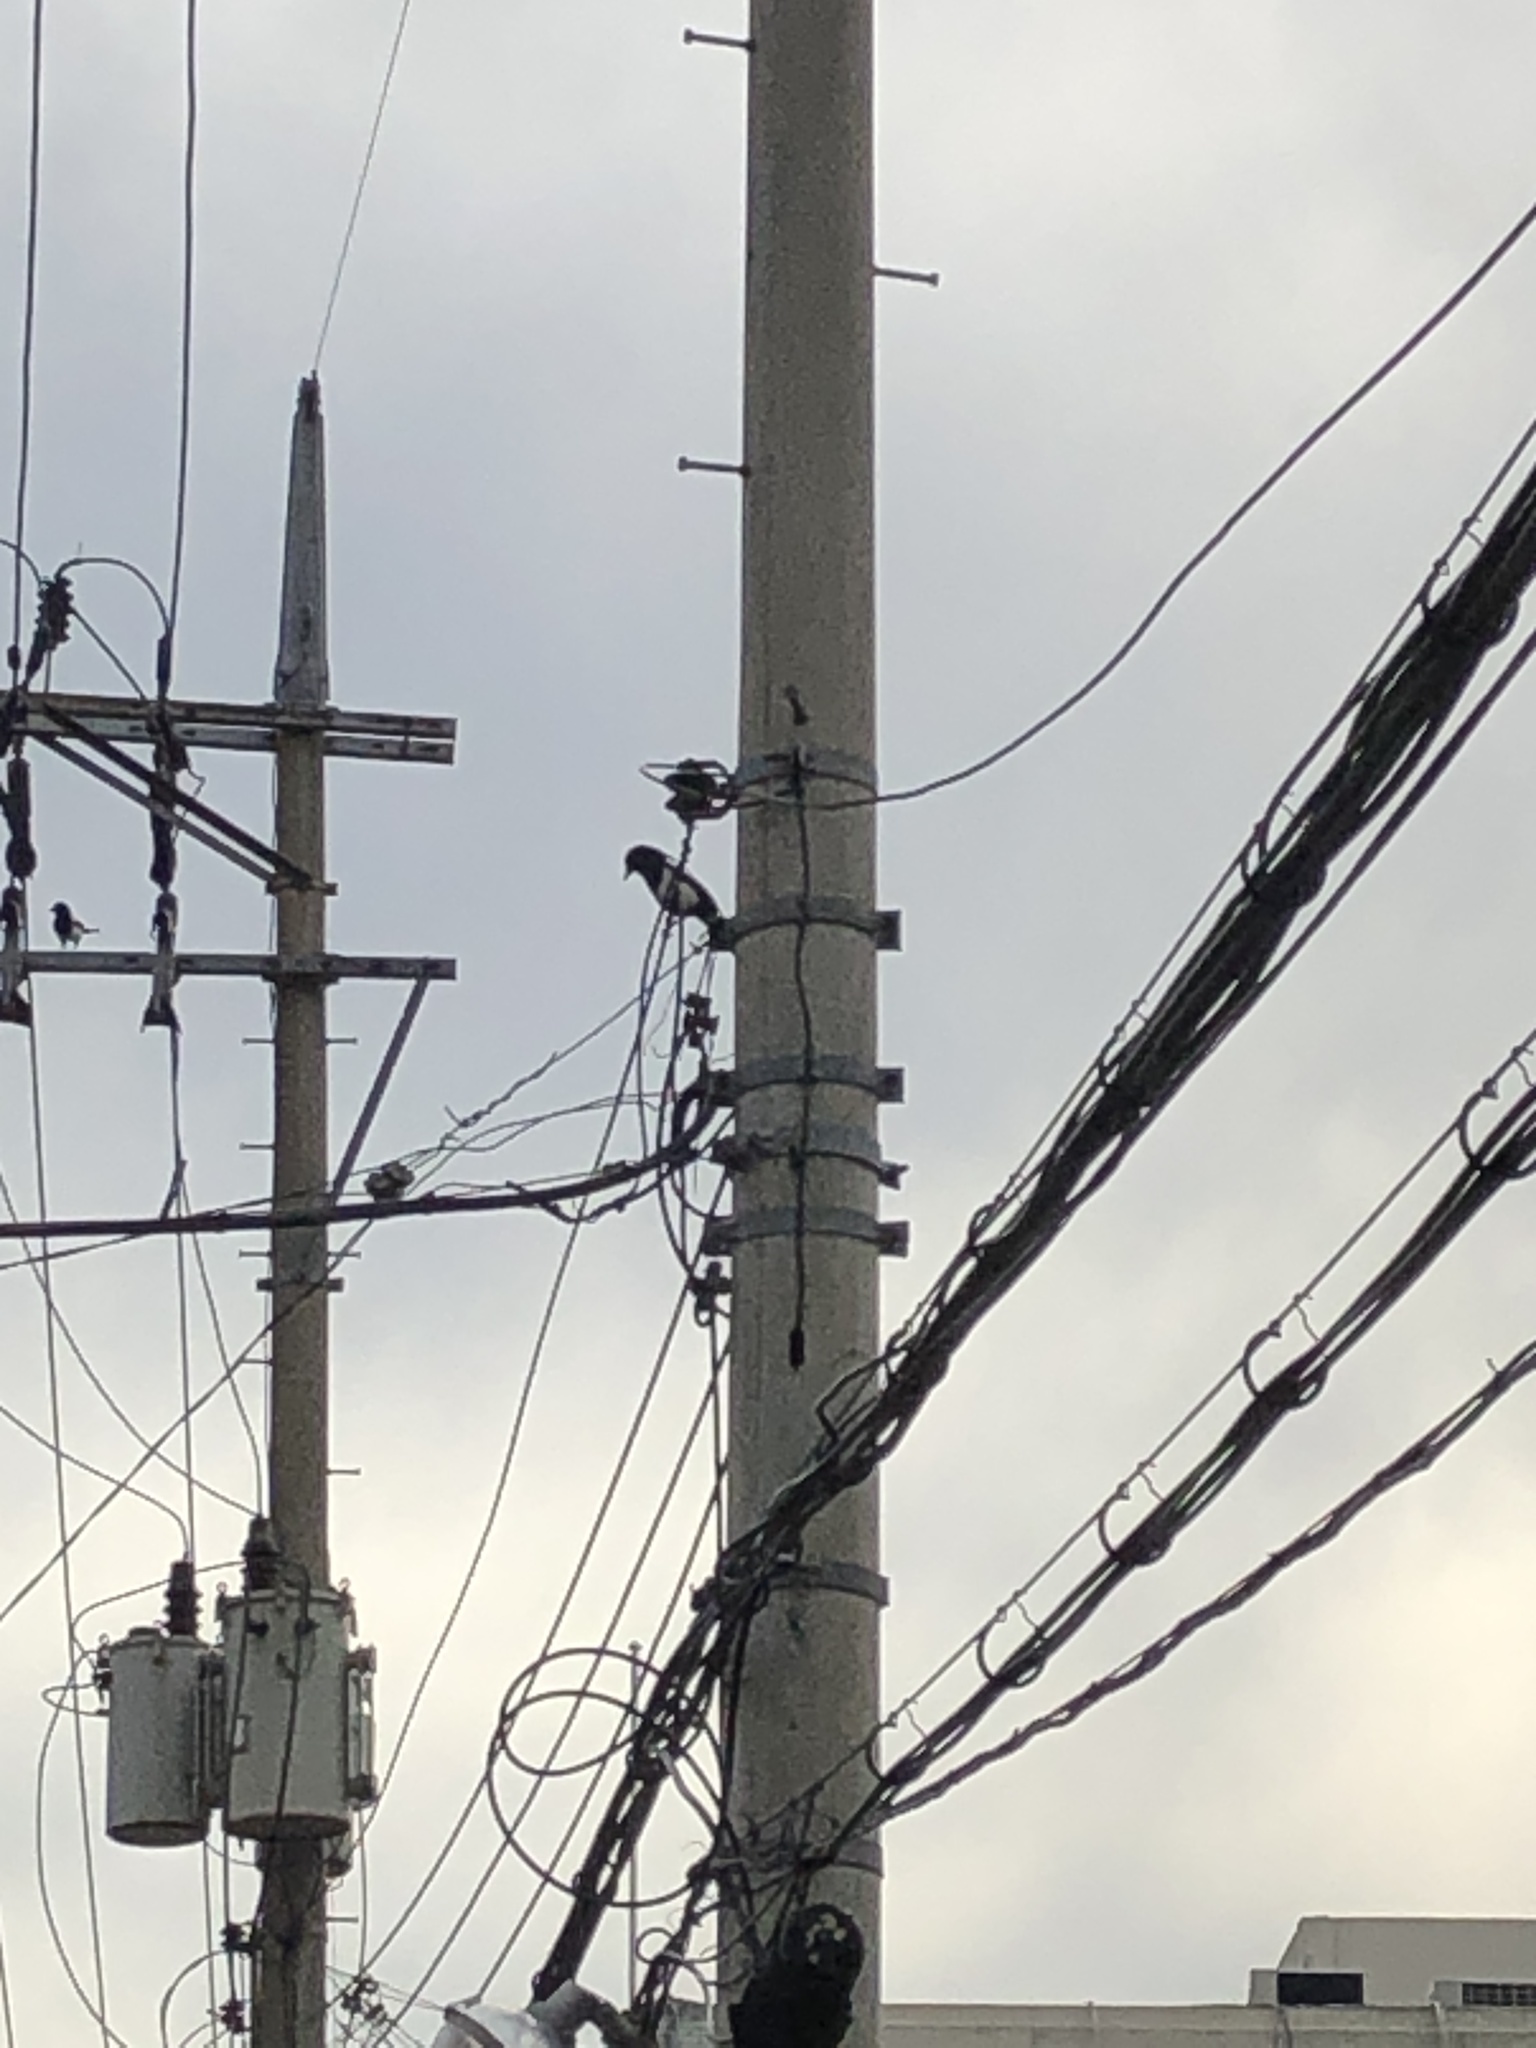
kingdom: Animalia
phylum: Chordata
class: Aves
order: Passeriformes
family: Corvidae
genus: Pica
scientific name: Pica serica
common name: Oriental magpie
